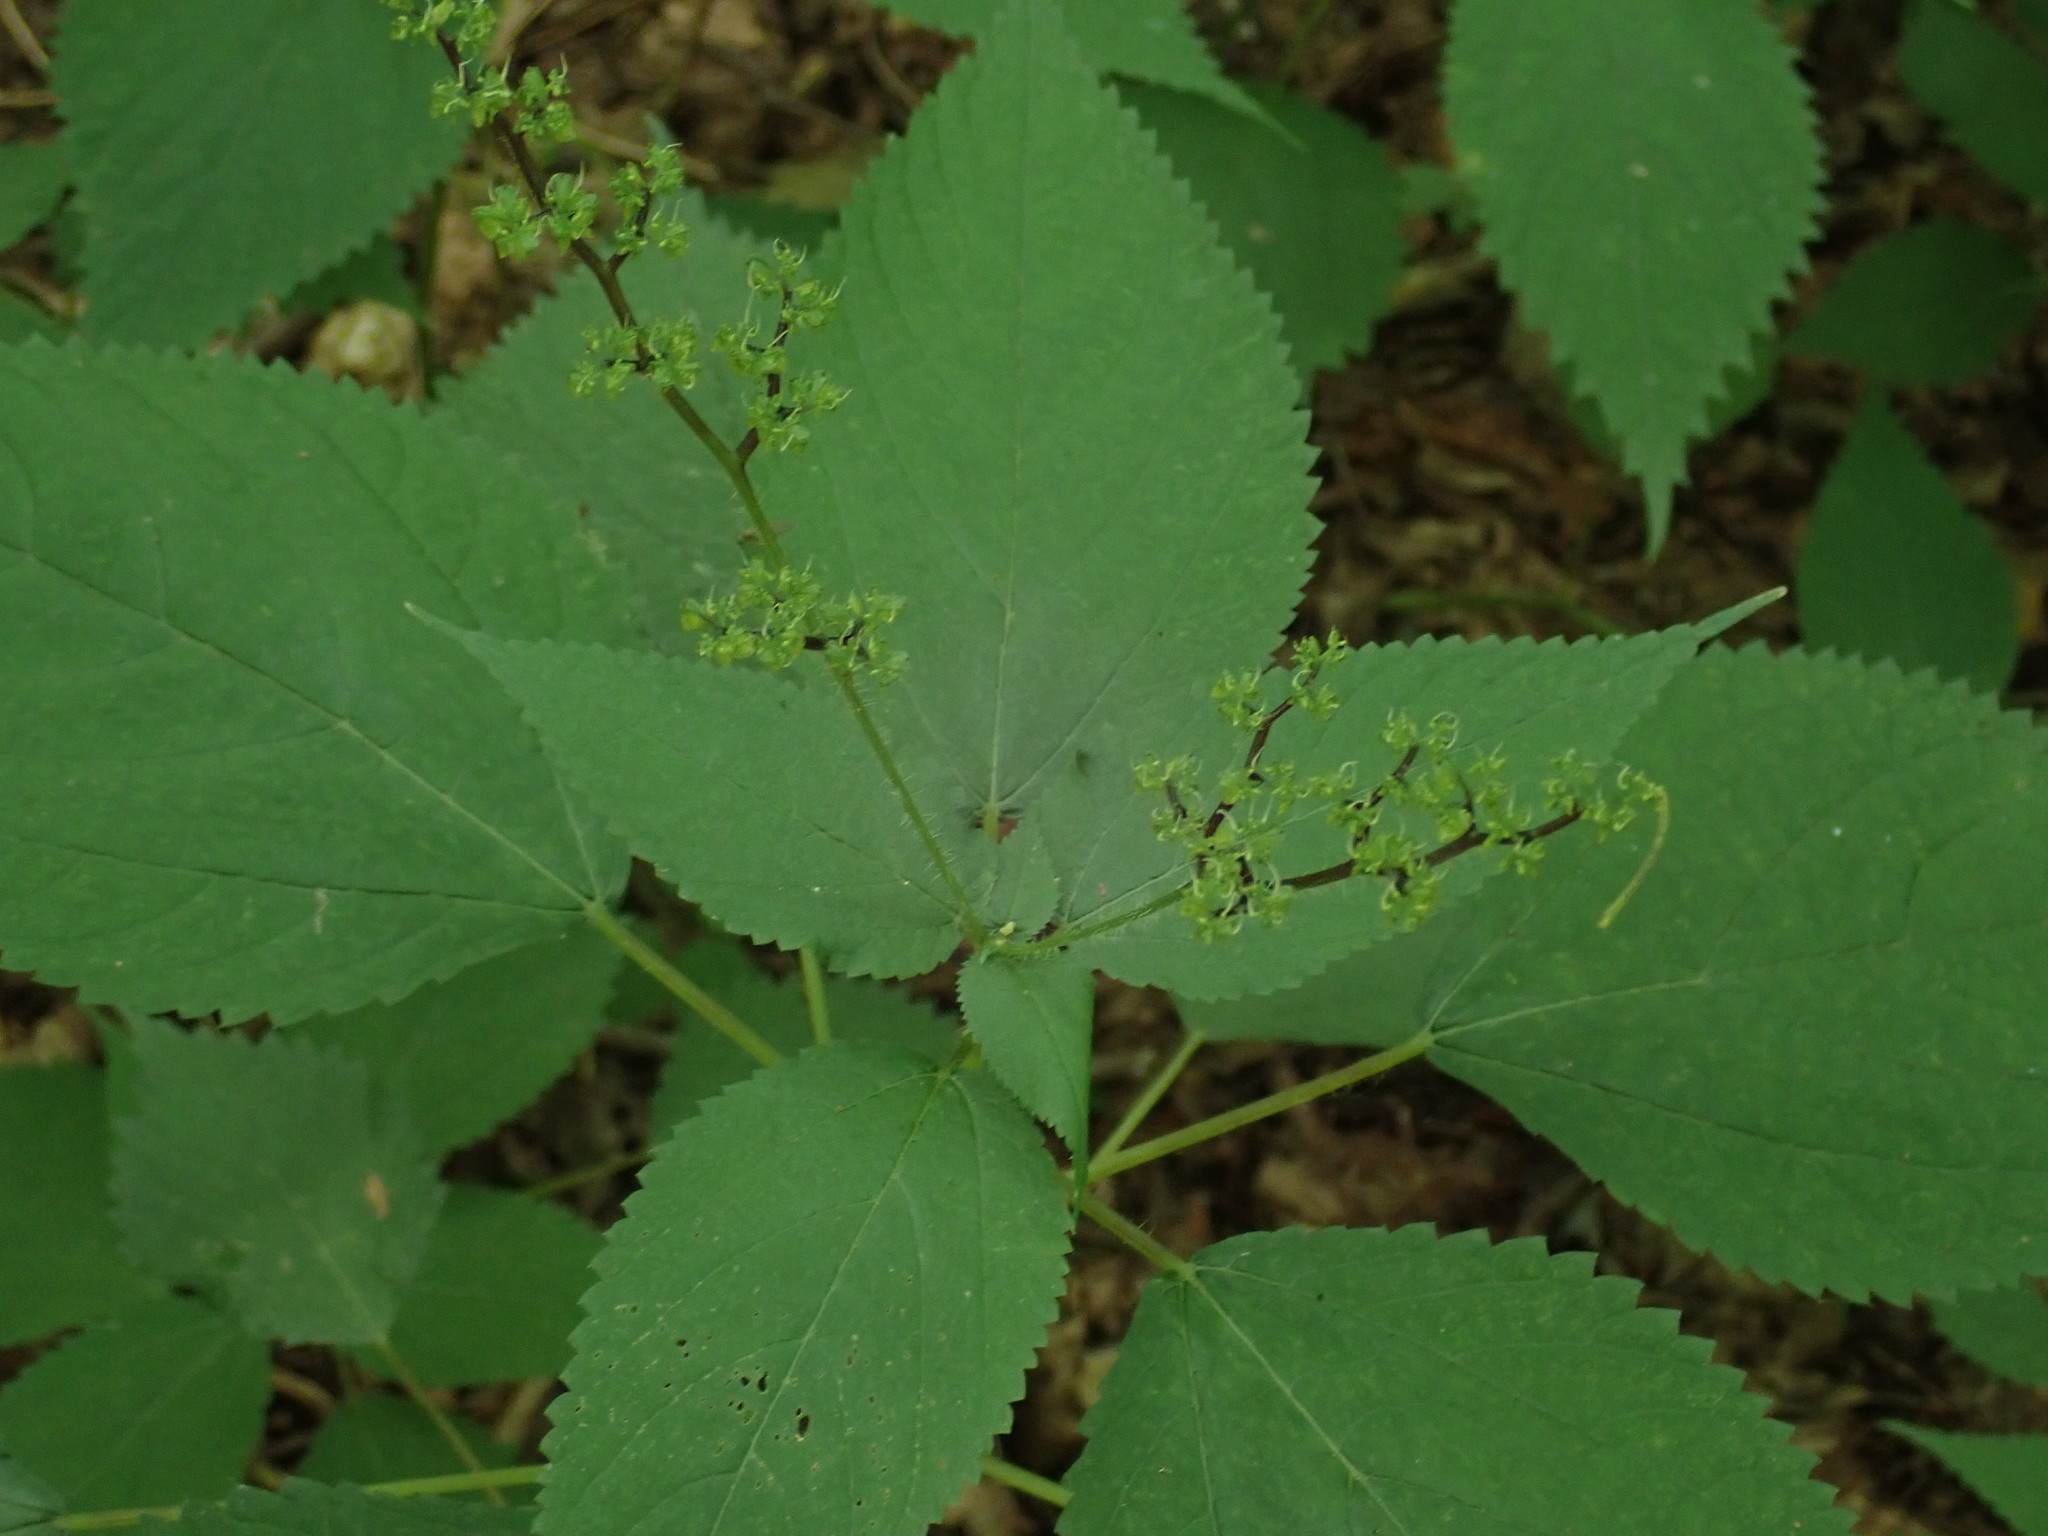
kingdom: Plantae
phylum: Tracheophyta
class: Magnoliopsida
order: Rosales
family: Urticaceae
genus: Laportea
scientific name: Laportea canadensis
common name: Canada nettle
